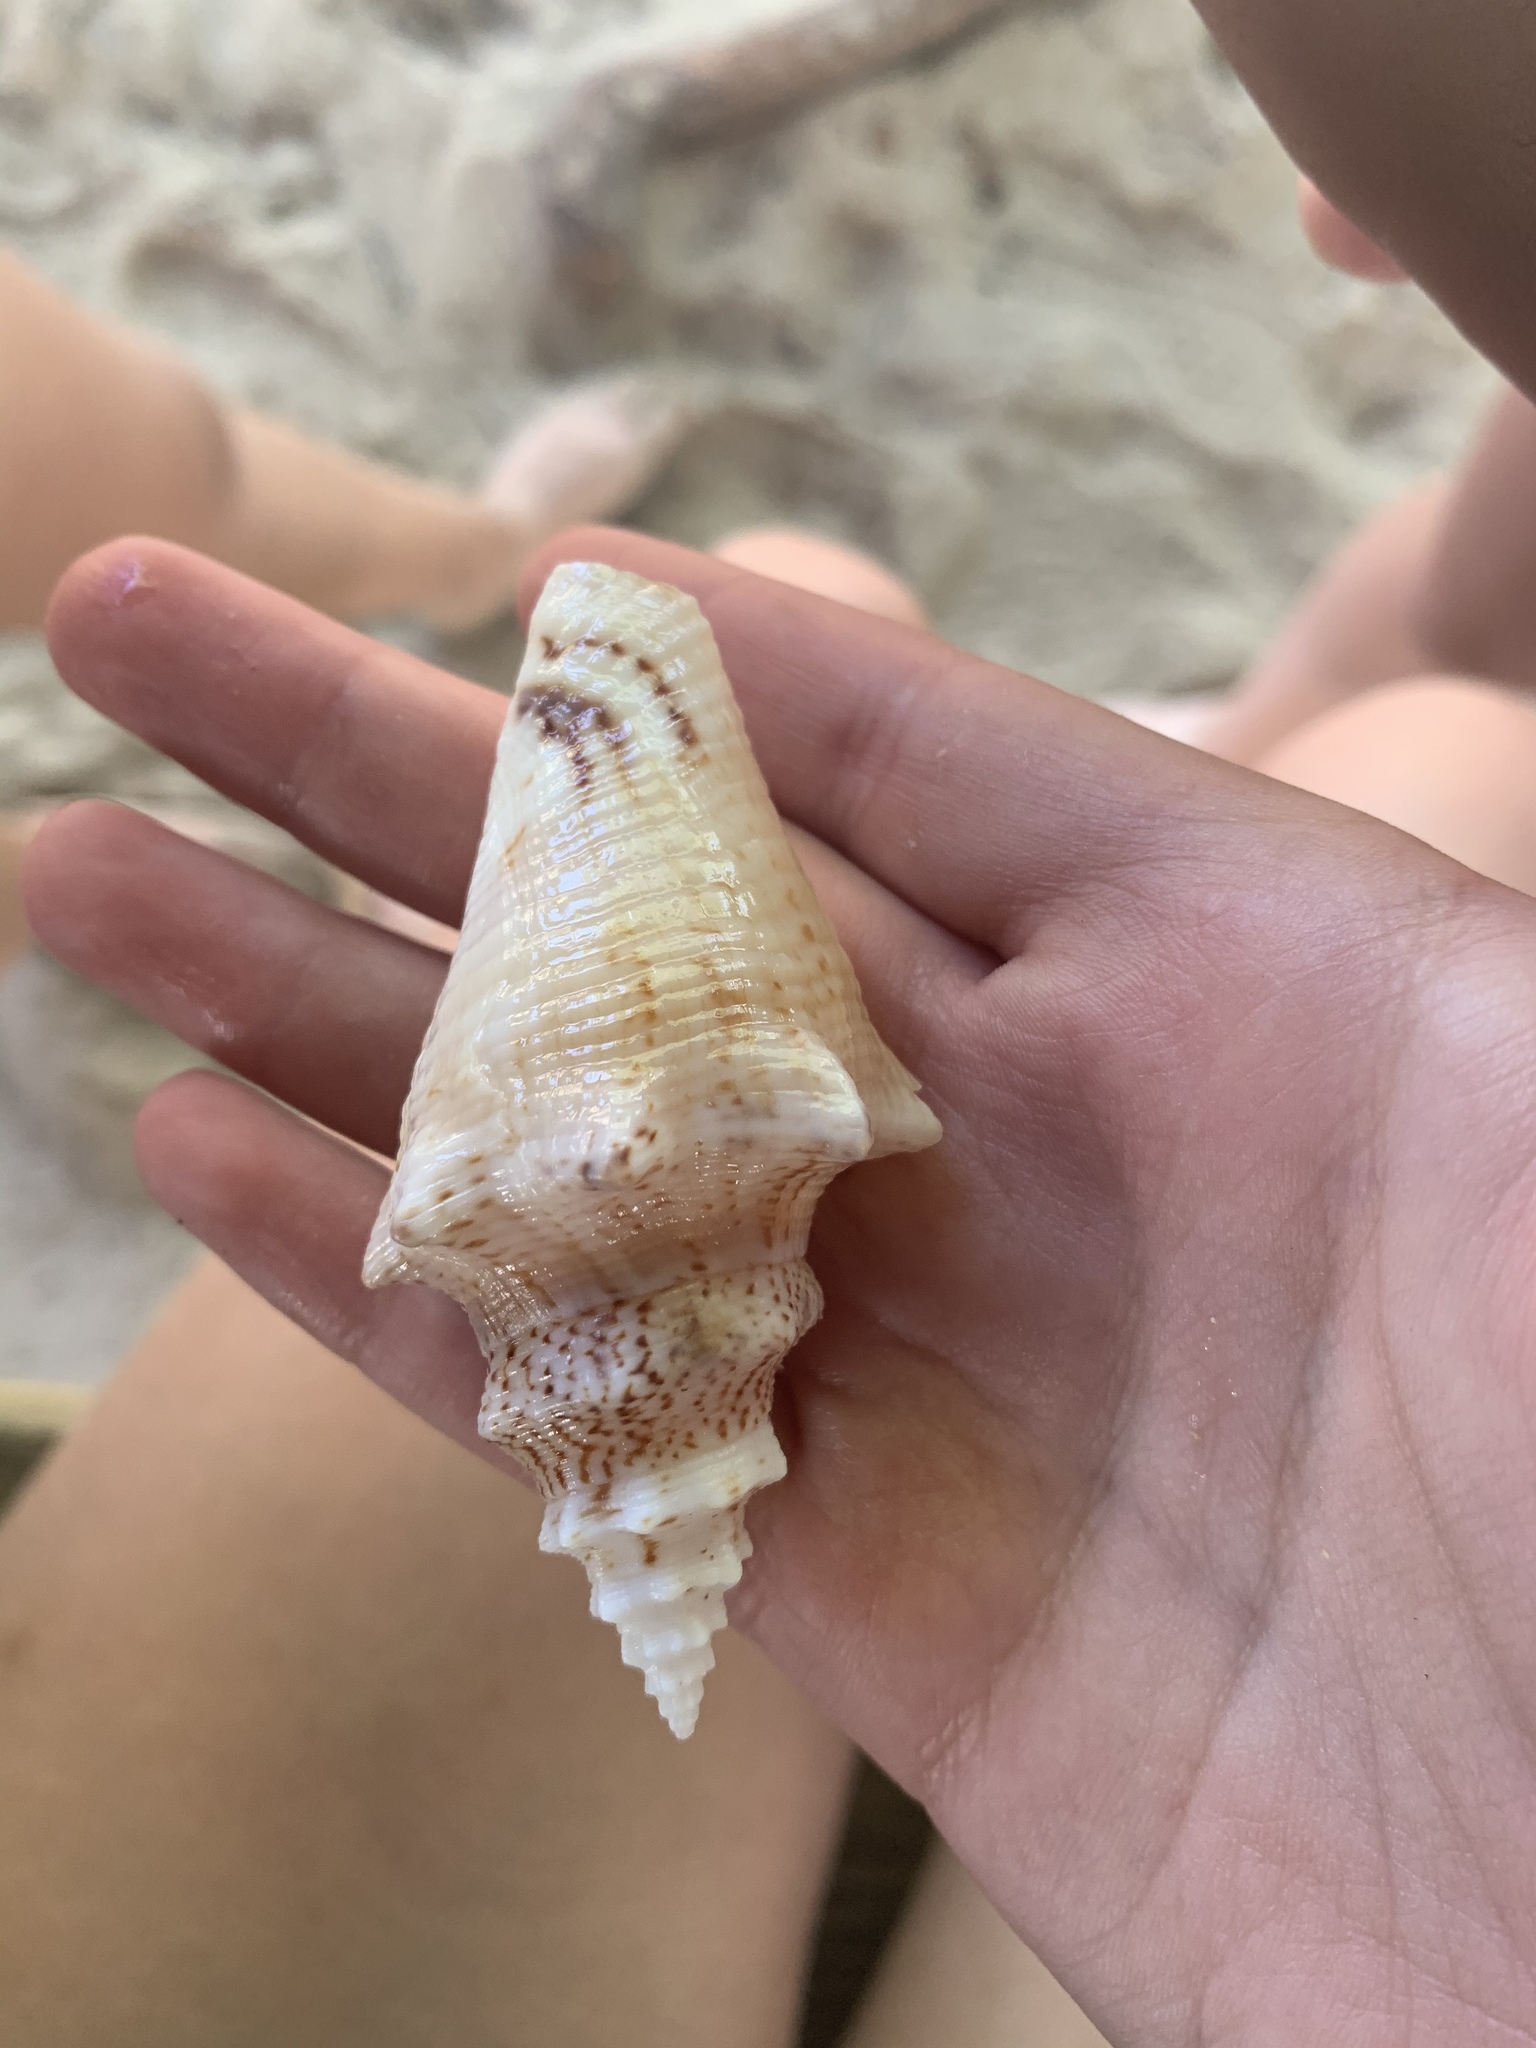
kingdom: Animalia
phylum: Mollusca
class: Gastropoda
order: Littorinimorpha
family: Strombidae
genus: Aliger
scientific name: Aliger gigas
